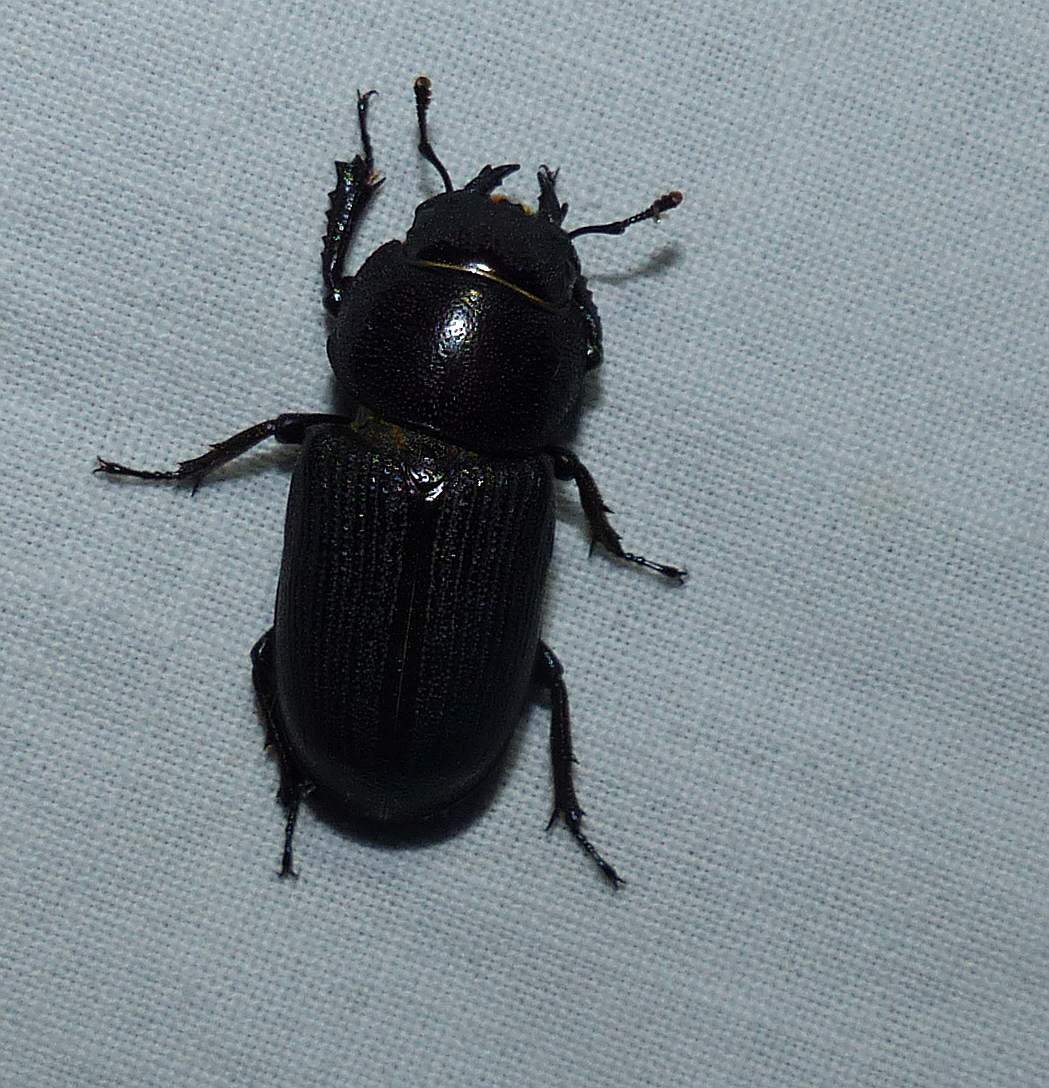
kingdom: Animalia
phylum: Arthropoda
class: Insecta
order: Coleoptera
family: Lucanidae
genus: Dorcus
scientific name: Dorcus parallelus
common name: Antelope beetle
